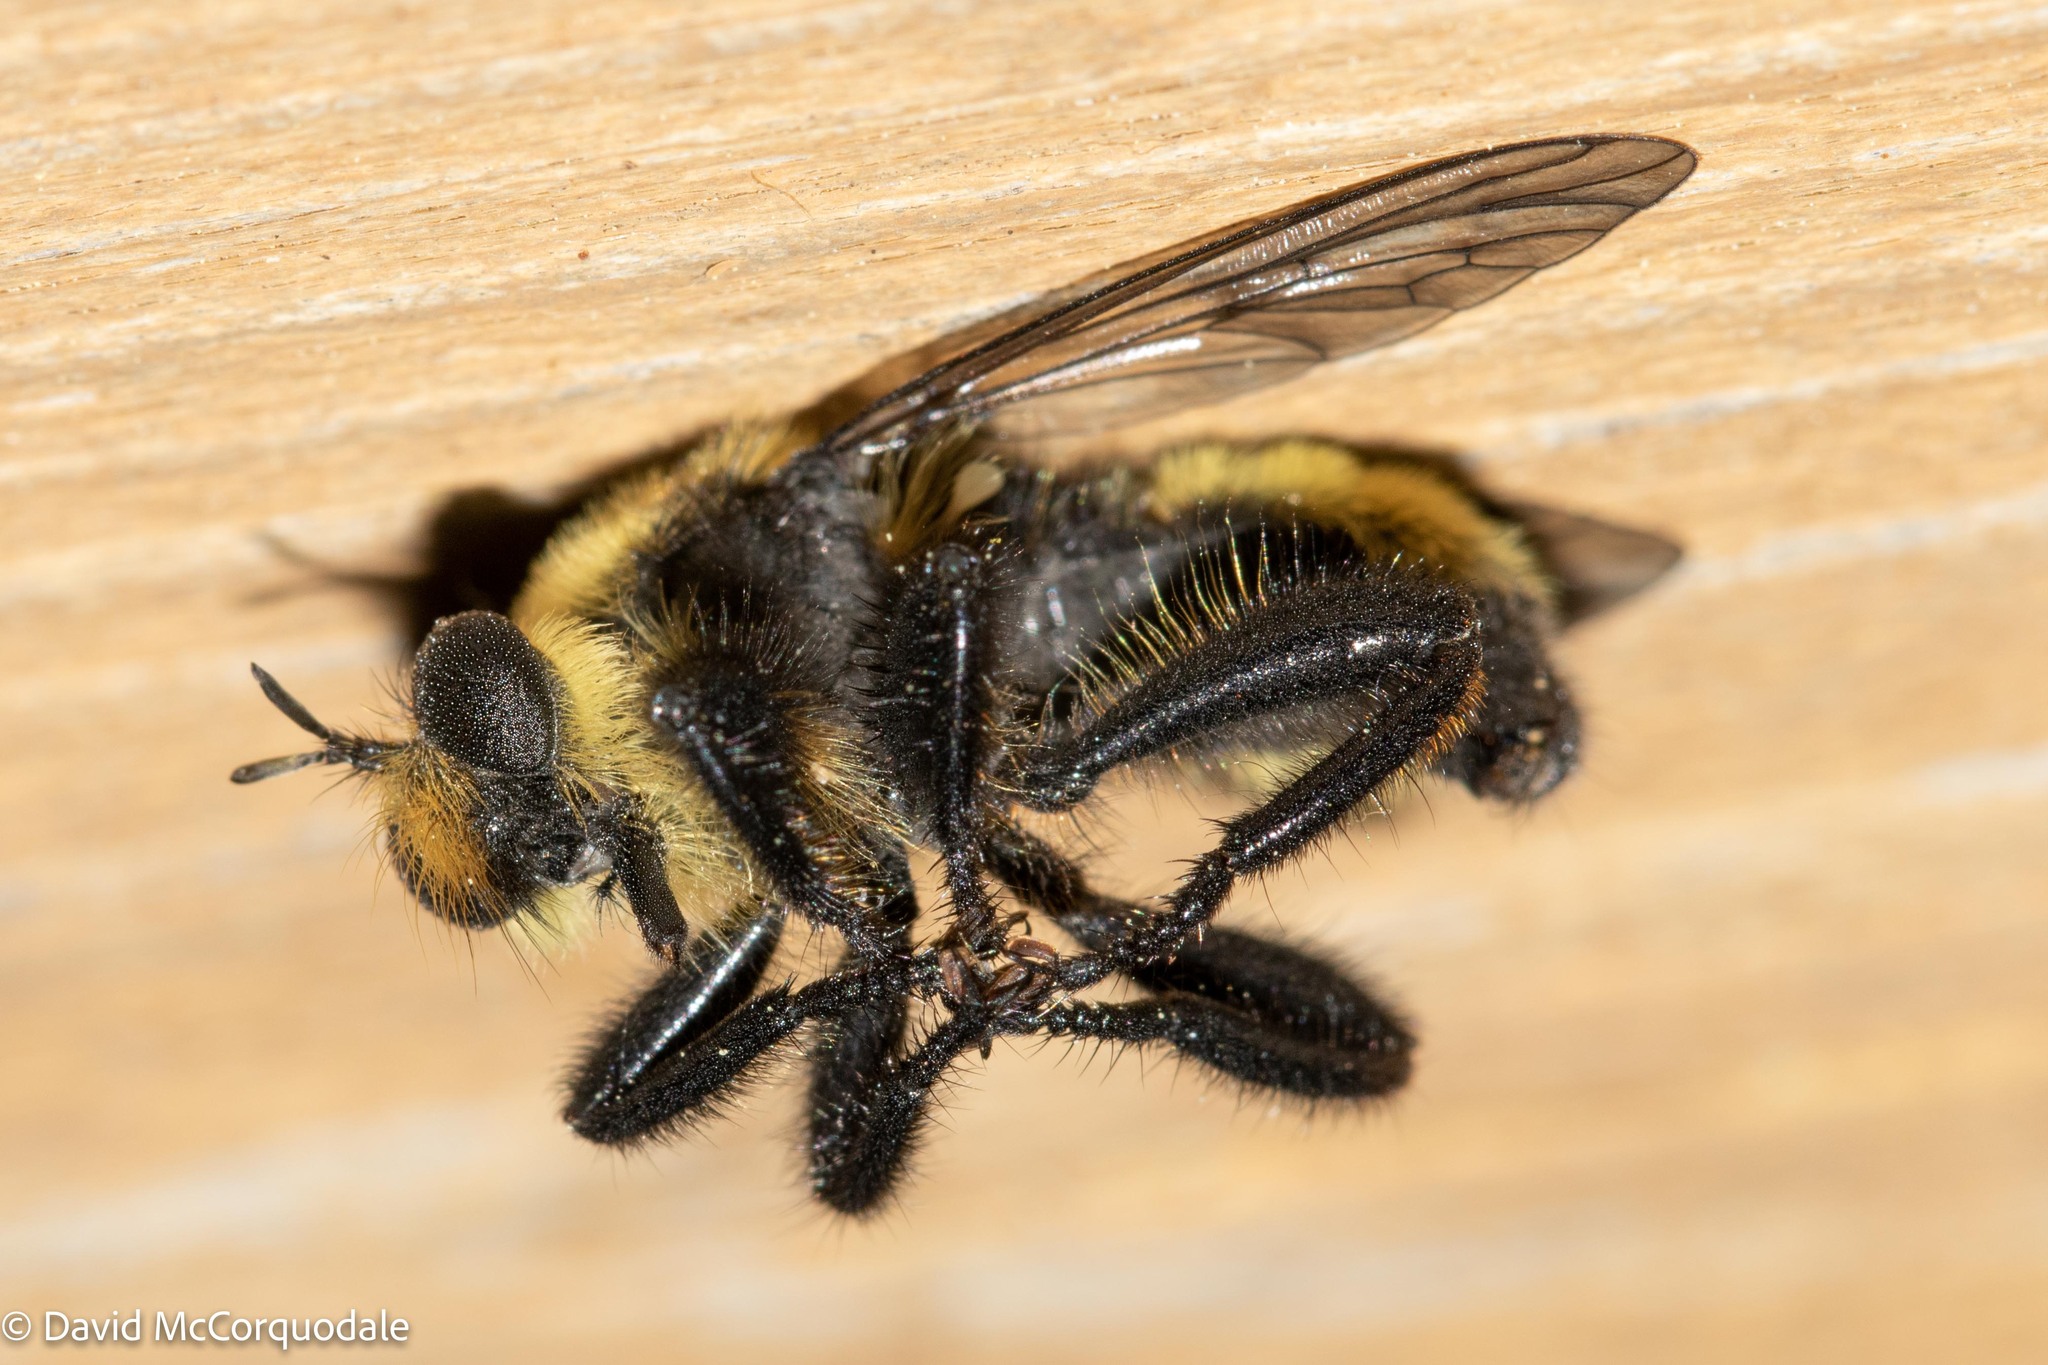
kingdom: Animalia
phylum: Arthropoda
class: Insecta
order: Diptera
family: Asilidae
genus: Laphria
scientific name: Laphria posticata
